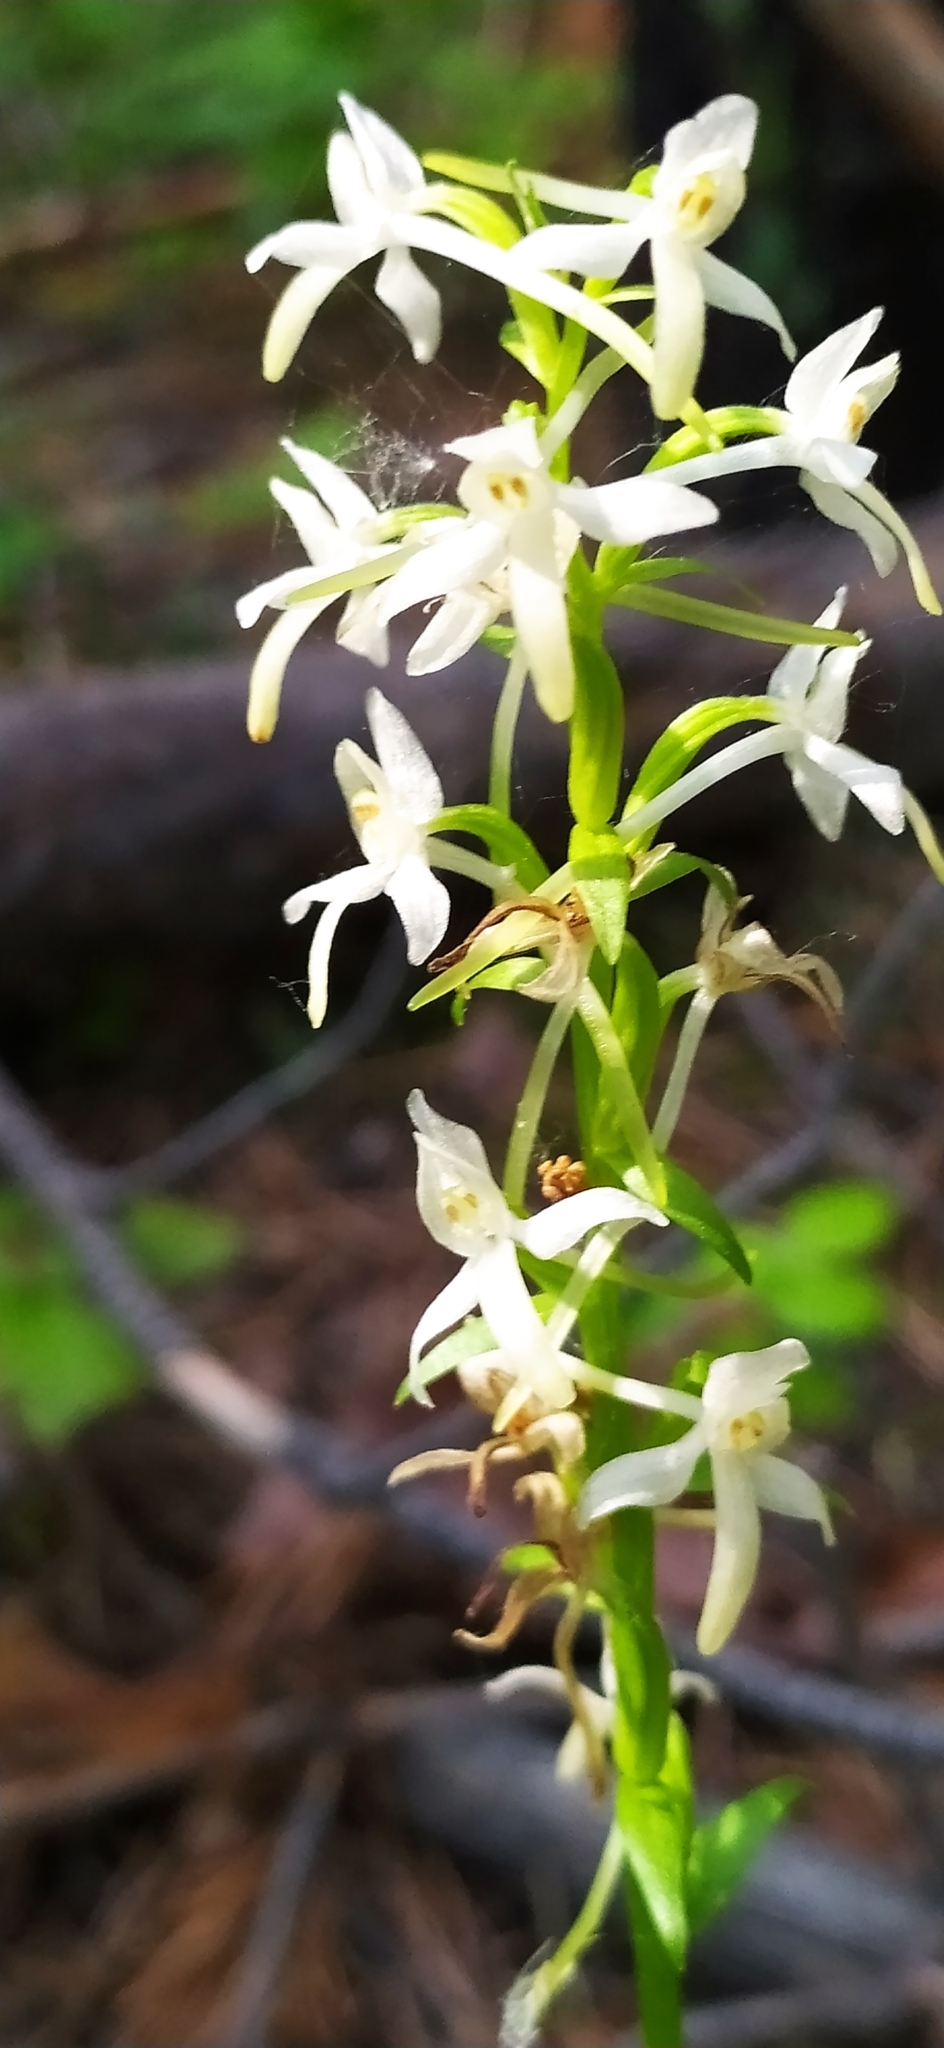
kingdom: Plantae
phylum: Tracheophyta
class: Liliopsida
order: Asparagales
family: Orchidaceae
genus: Platanthera
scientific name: Platanthera bifolia
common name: Lesser butterfly-orchid
